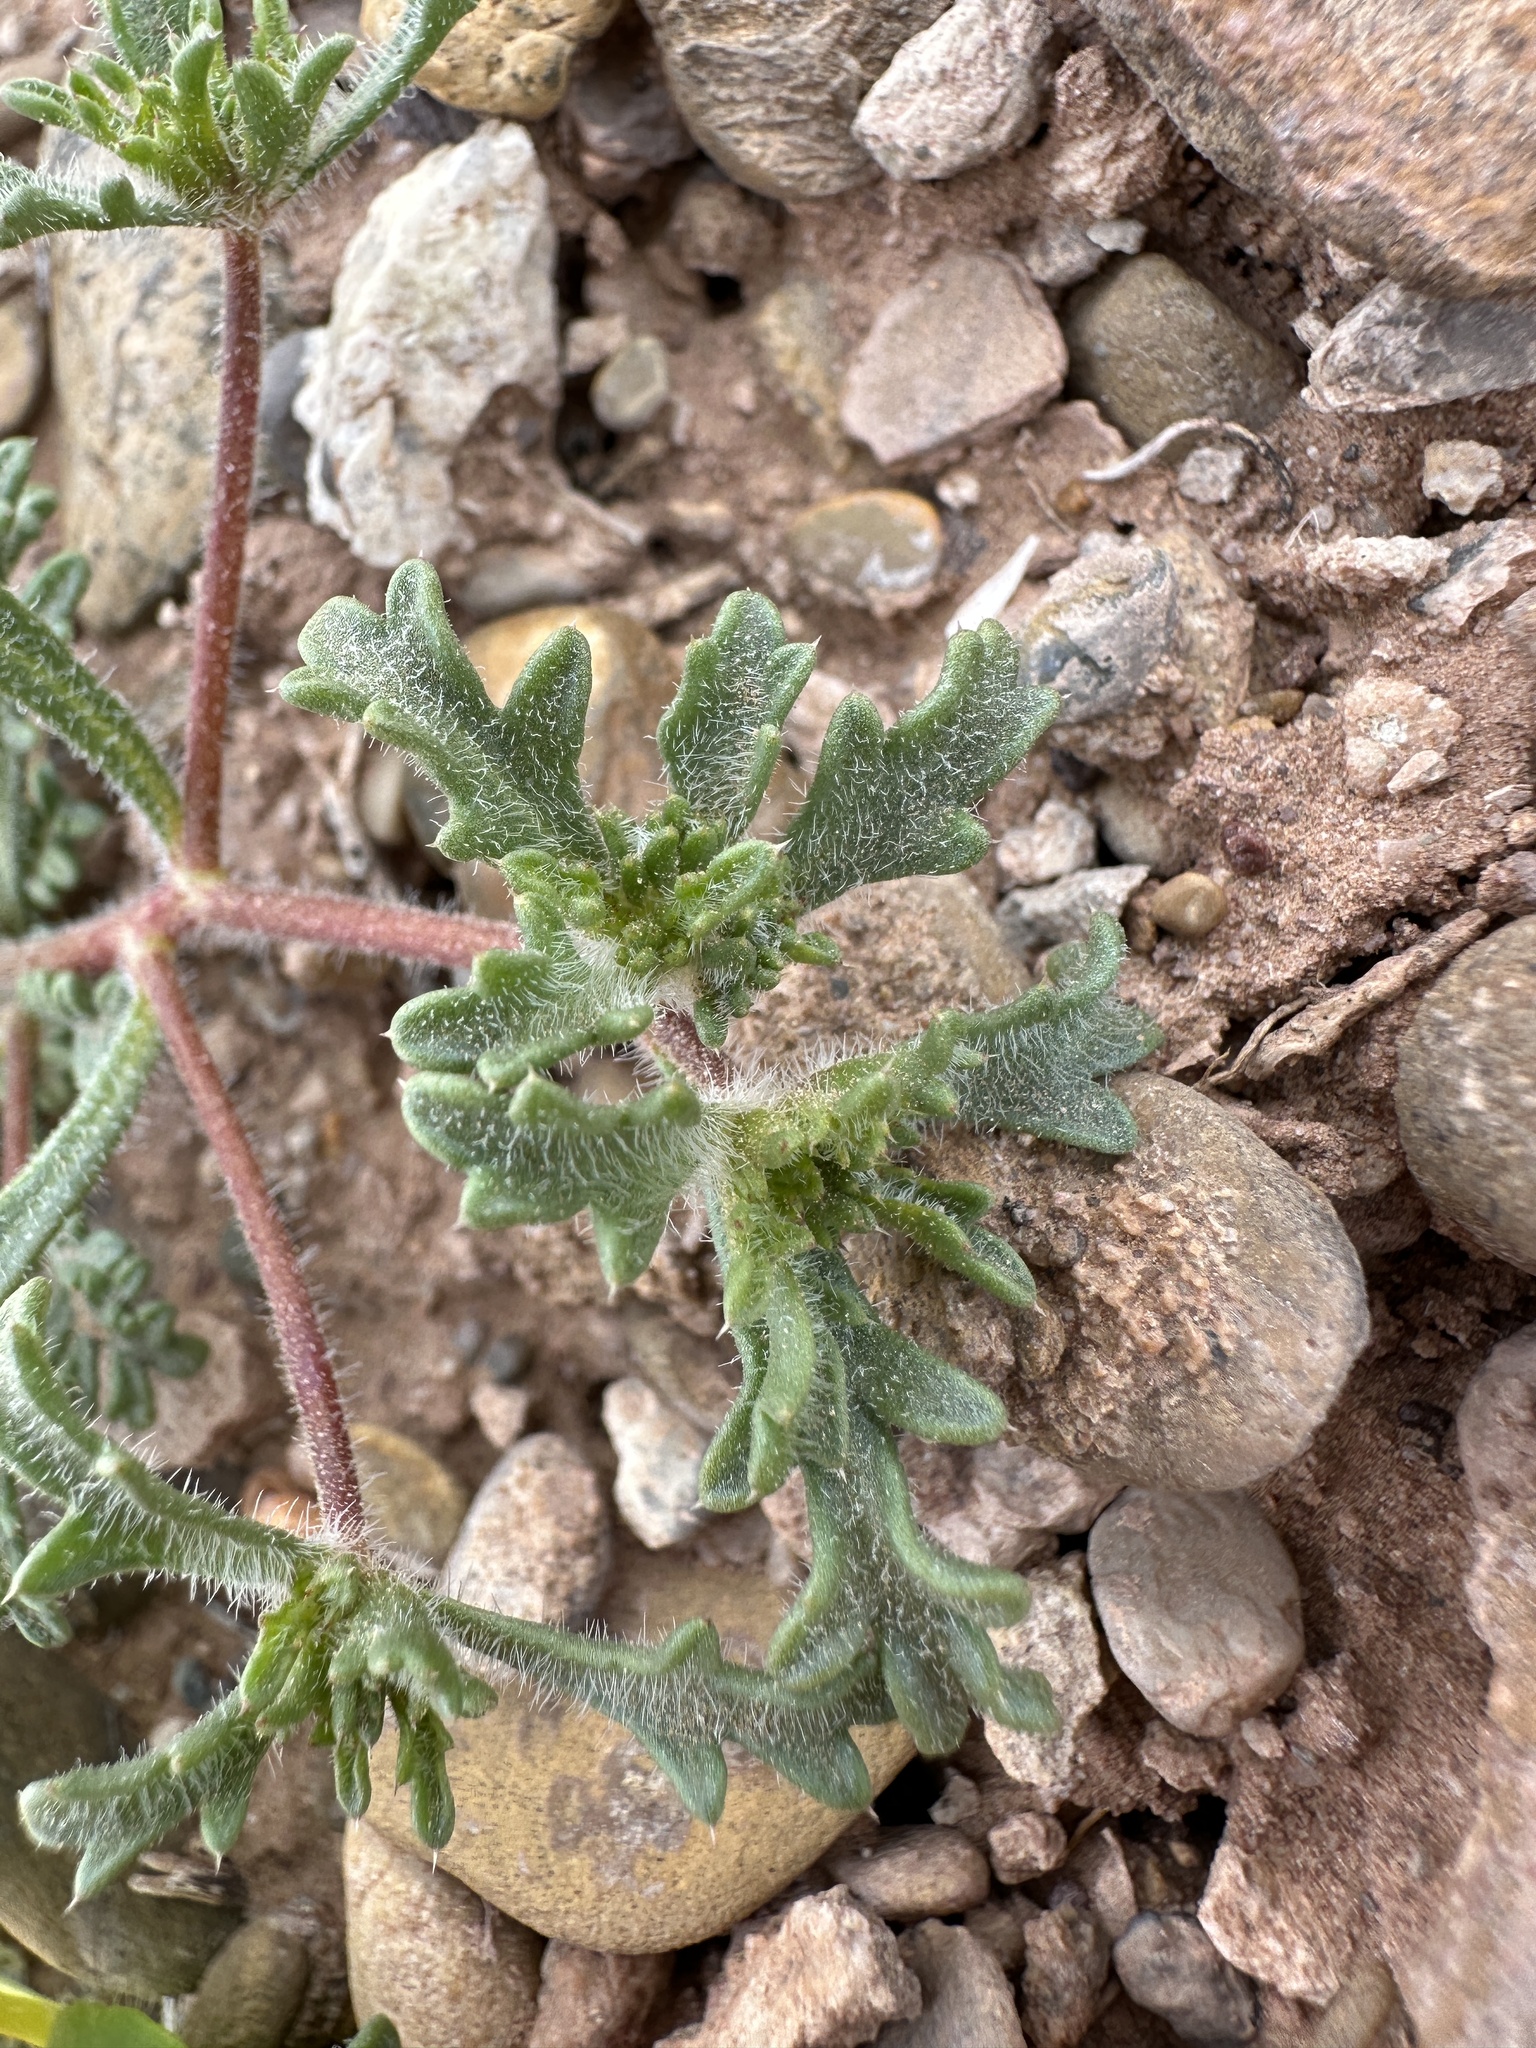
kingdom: Plantae
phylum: Tracheophyta
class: Magnoliopsida
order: Ericales
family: Polemoniaceae
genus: Ipomopsis
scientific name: Ipomopsis polycladon
